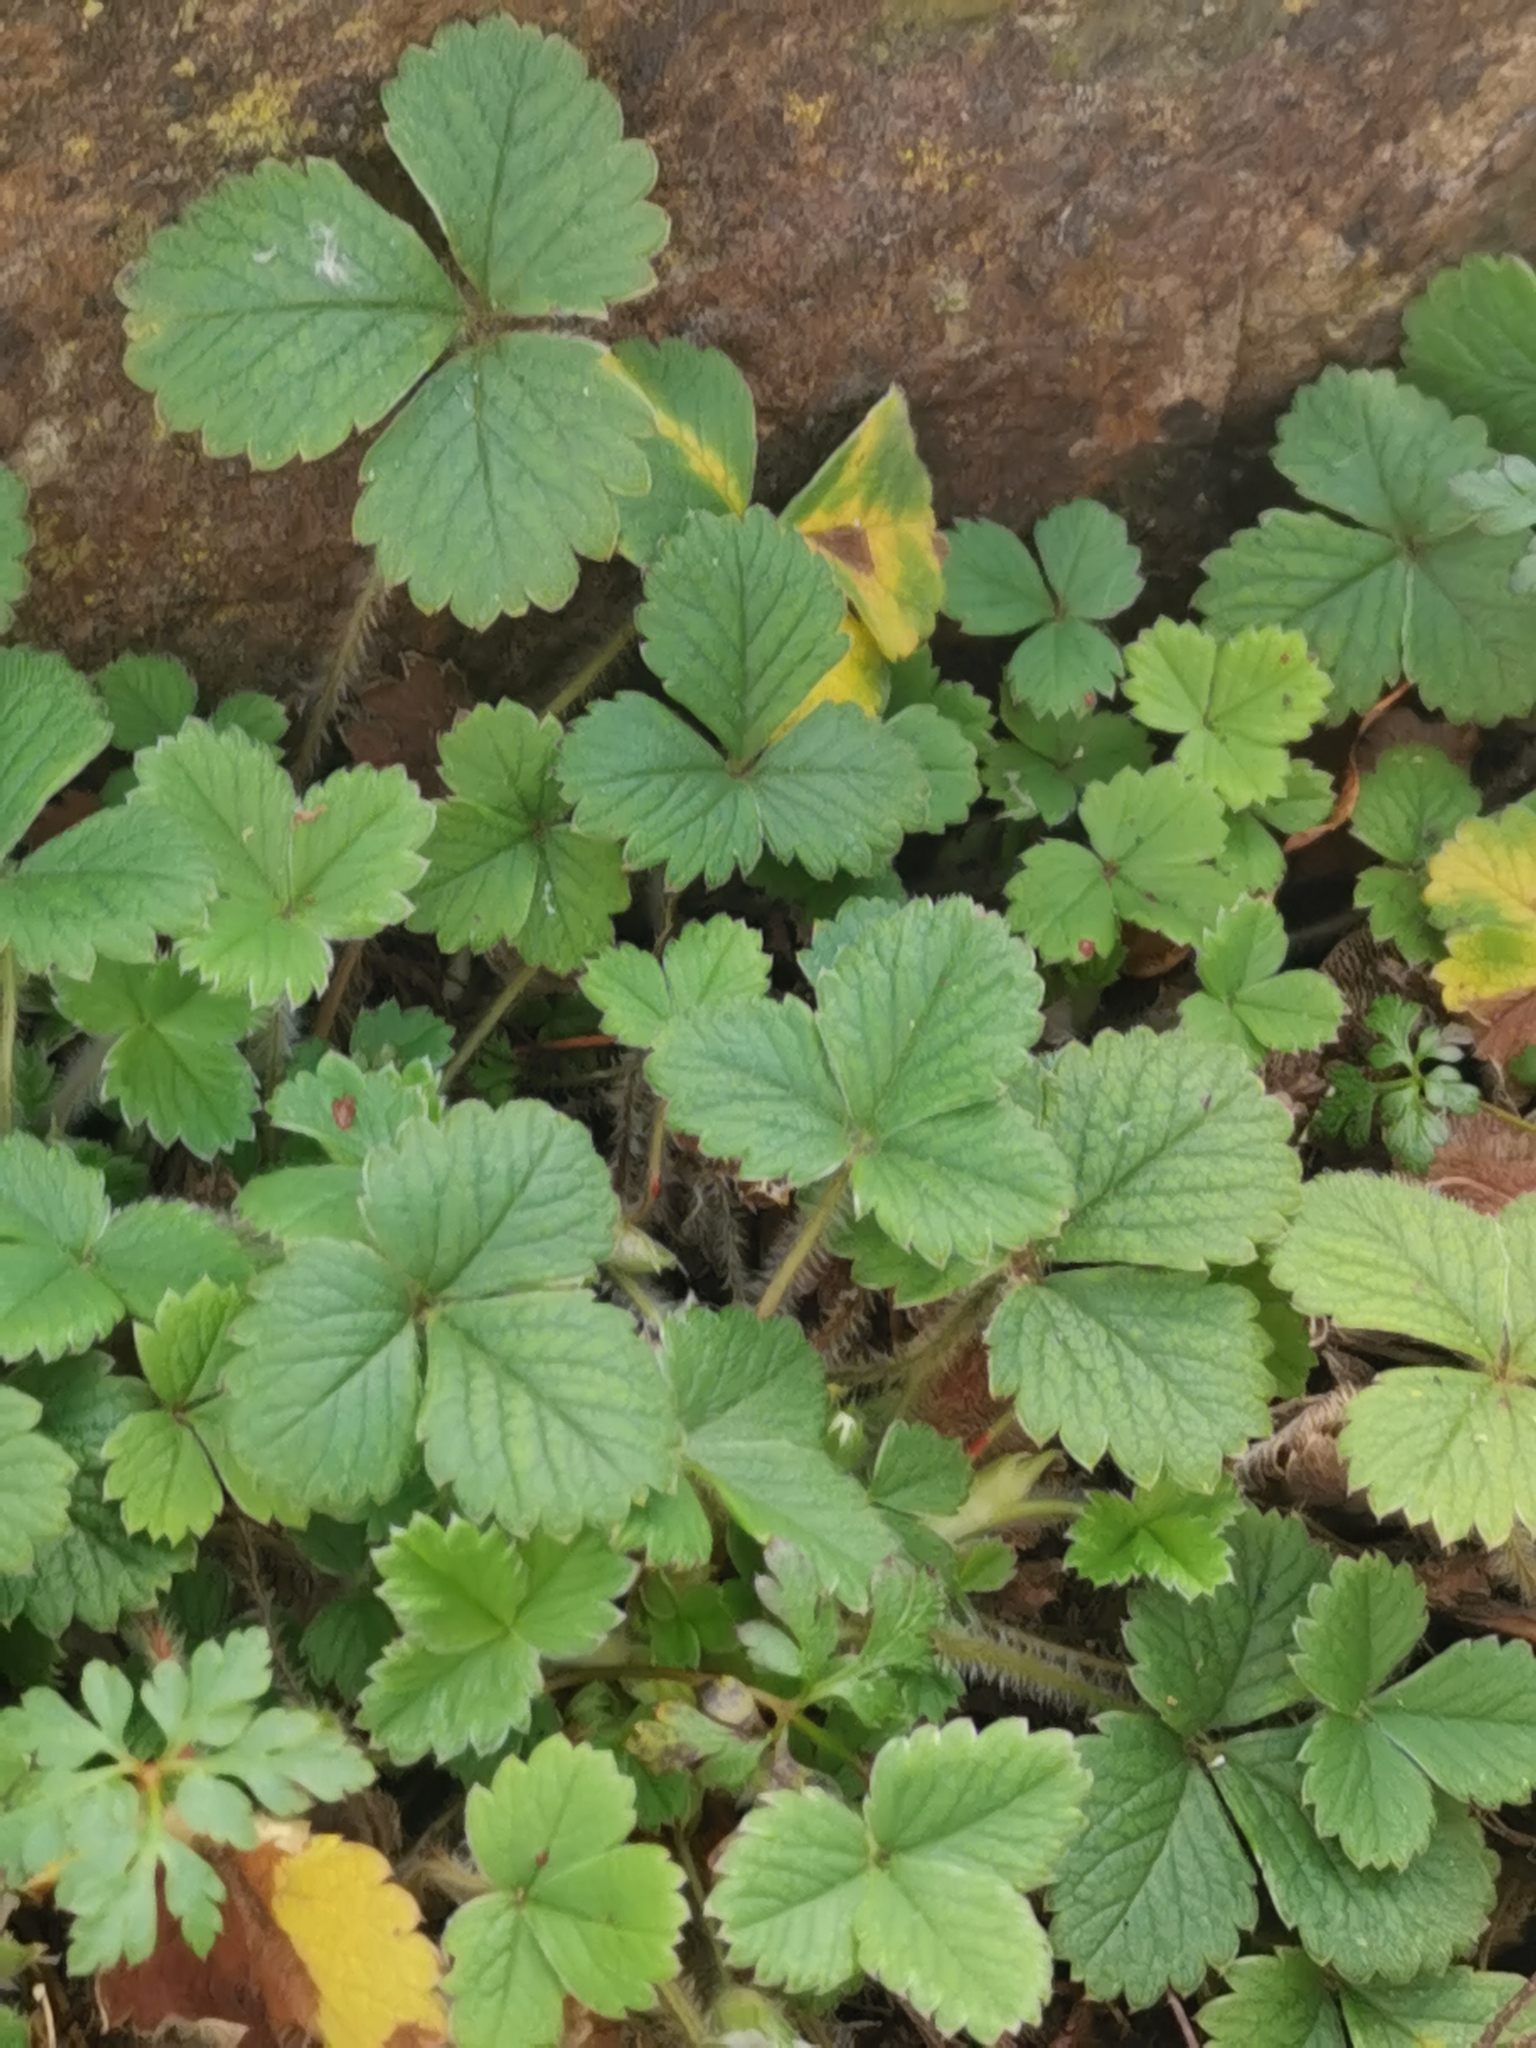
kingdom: Plantae
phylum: Tracheophyta
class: Magnoliopsida
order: Rosales
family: Rosaceae
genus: Potentilla
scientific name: Potentilla sterilis
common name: Barren strawberry
